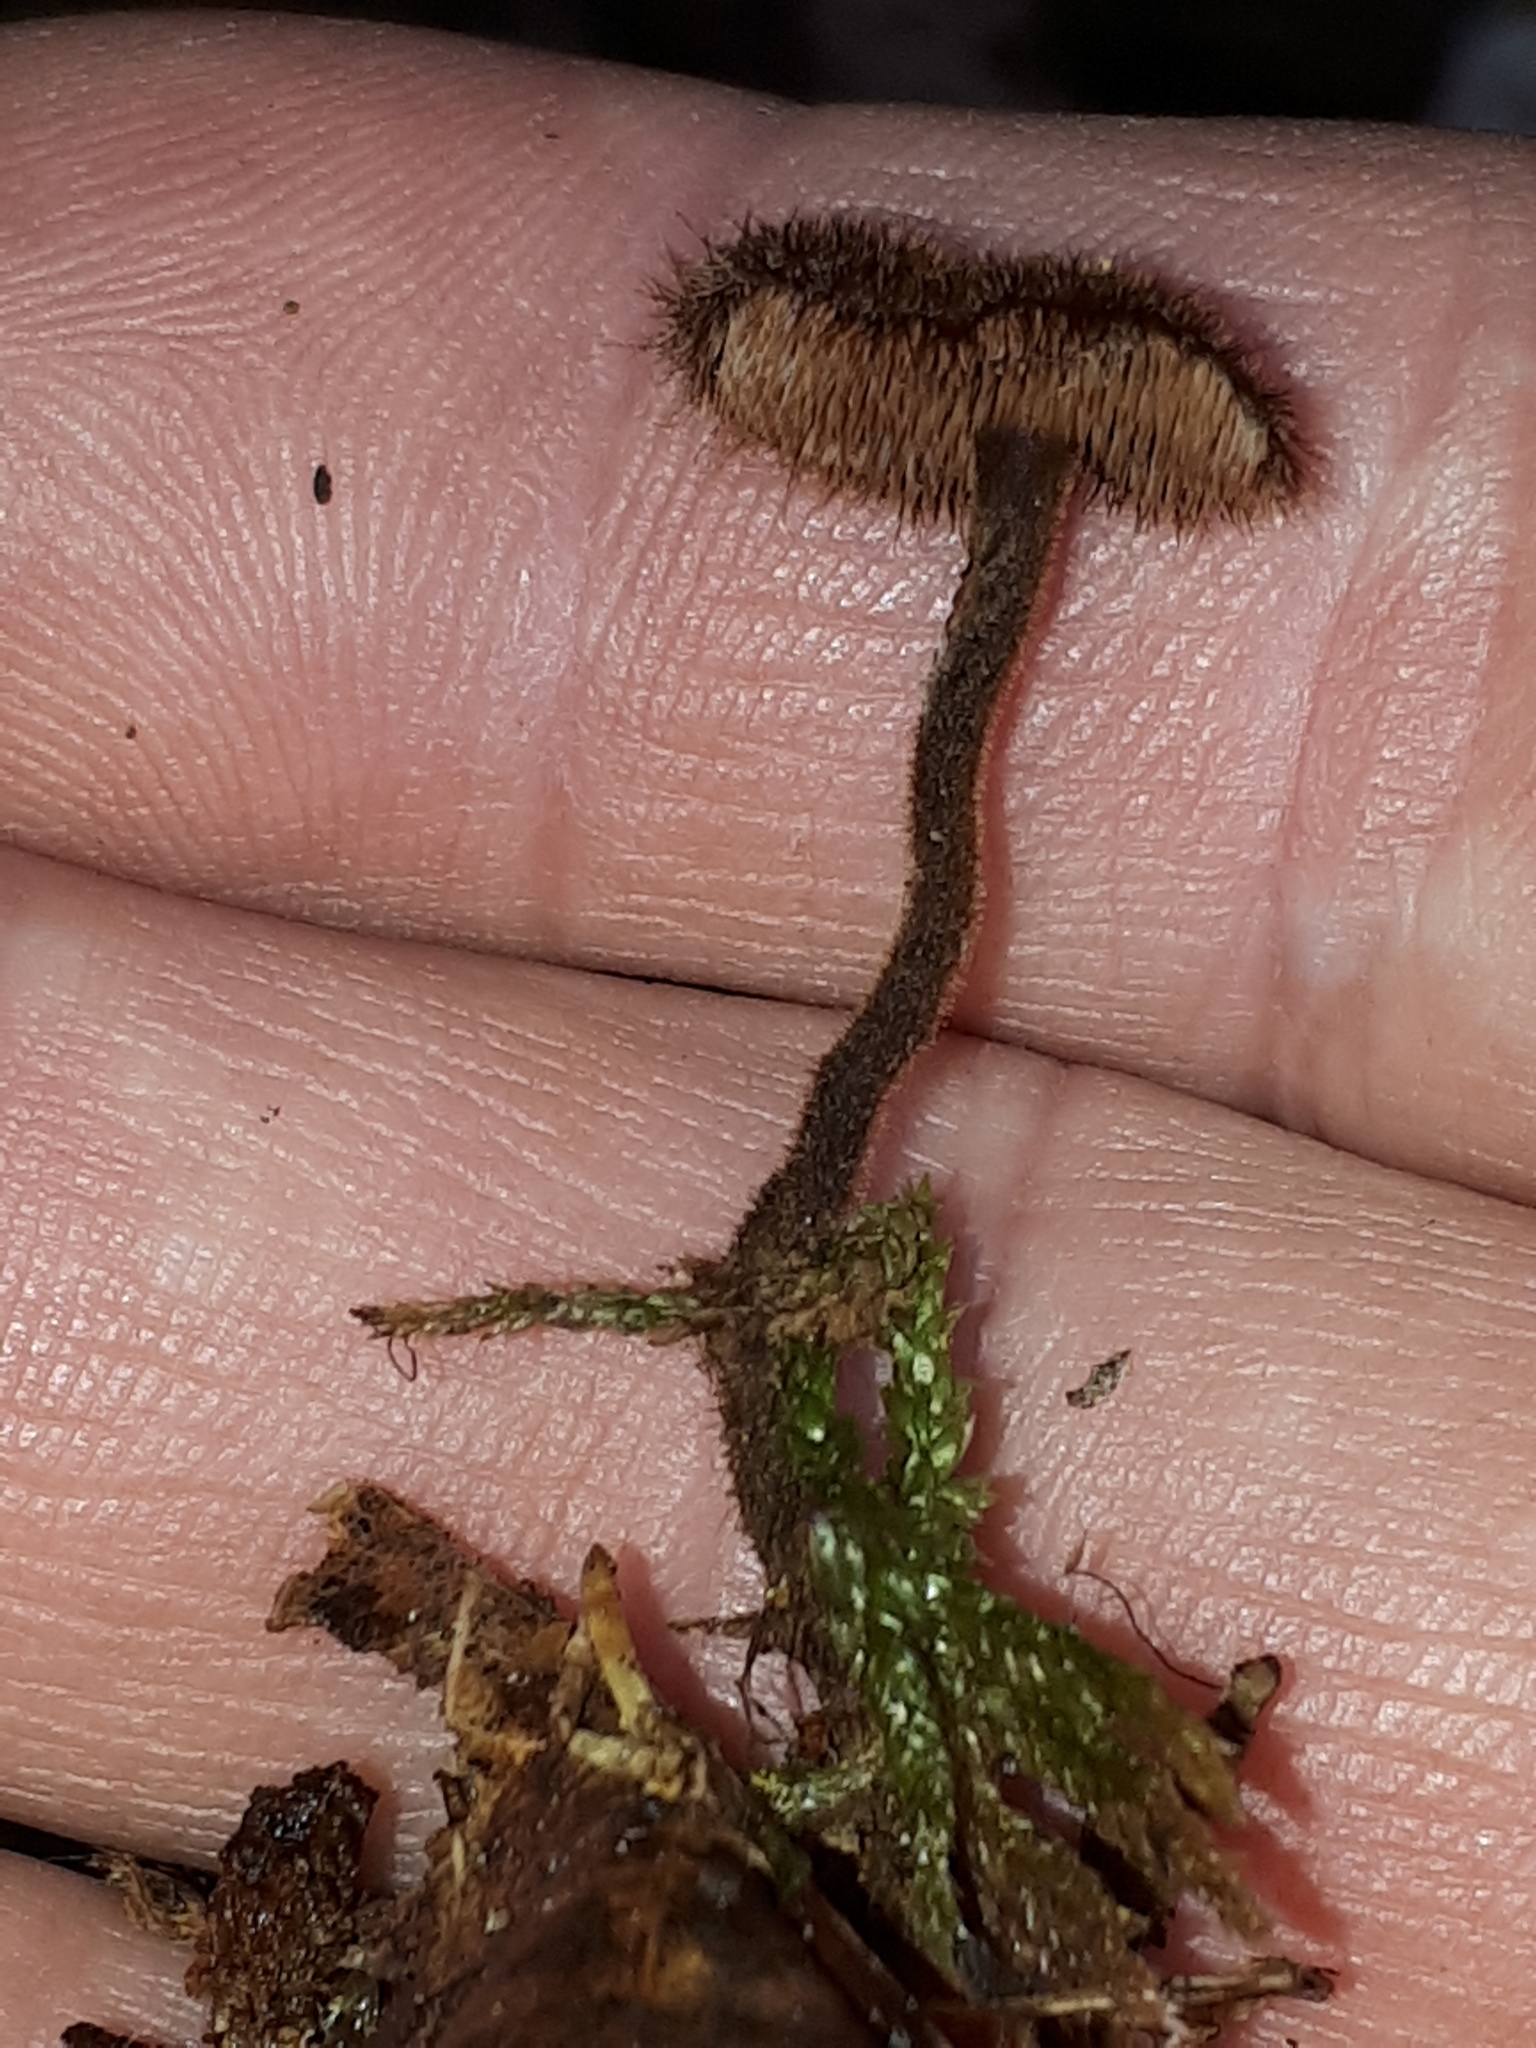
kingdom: Fungi
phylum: Basidiomycota
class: Agaricomycetes
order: Russulales
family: Auriscalpiaceae
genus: Auriscalpium
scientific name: Auriscalpium vulgare
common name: Earpick fungus
